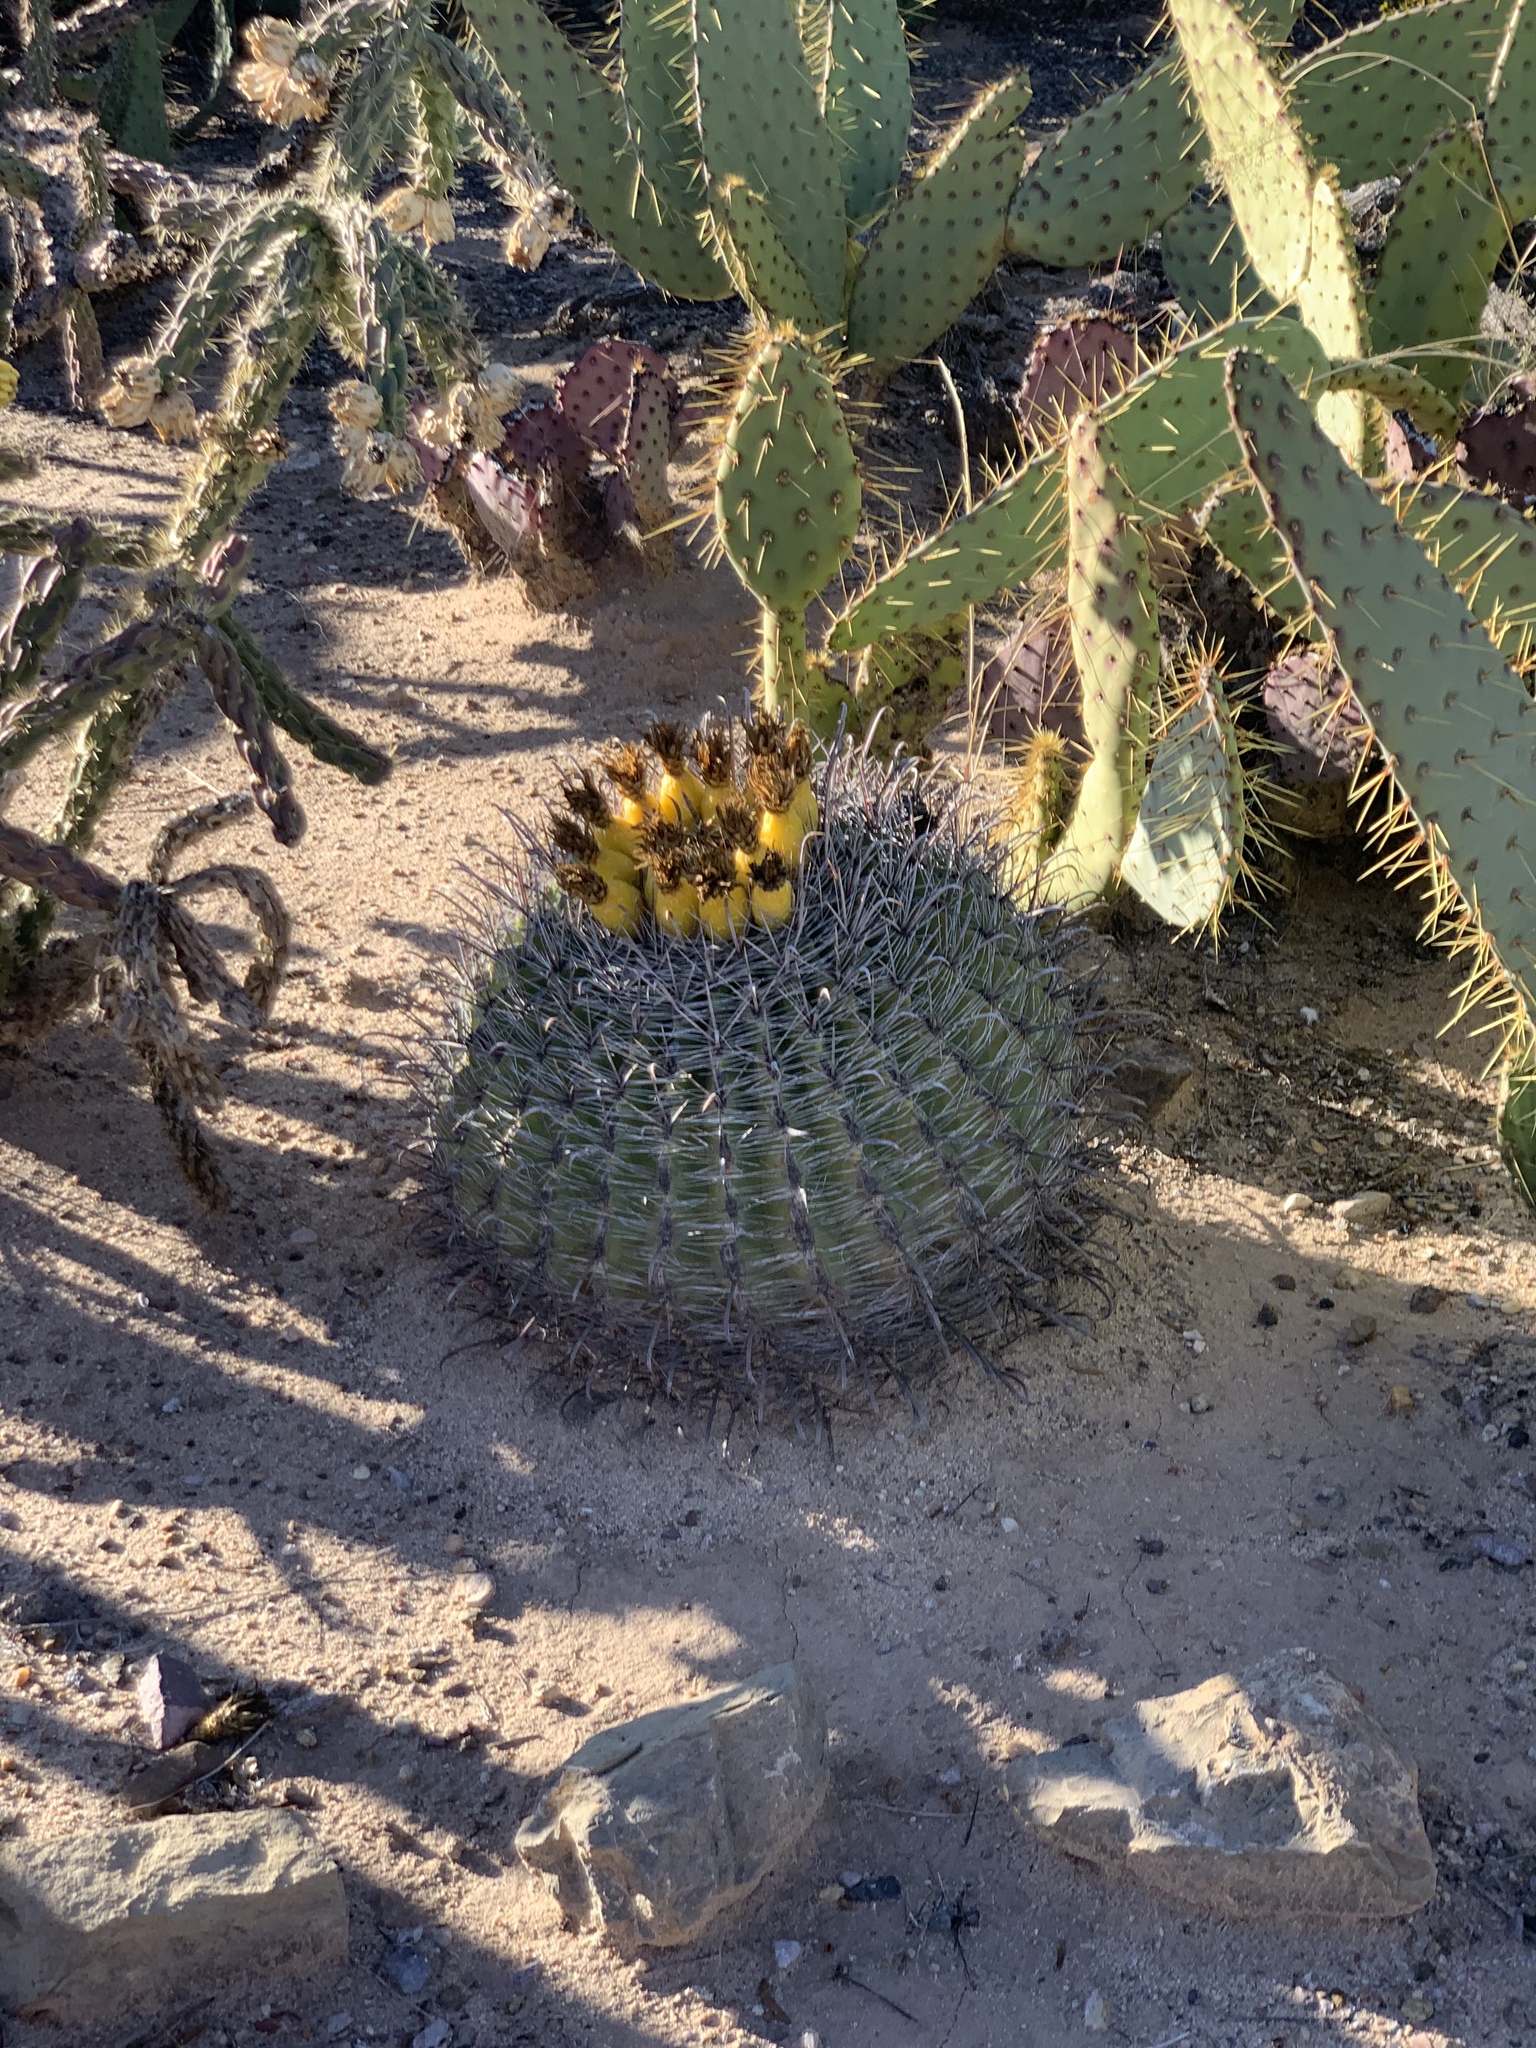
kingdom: Plantae
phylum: Tracheophyta
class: Magnoliopsida
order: Caryophyllales
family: Cactaceae
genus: Ferocactus
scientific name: Ferocactus wislizeni
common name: Candy barrel cactus
